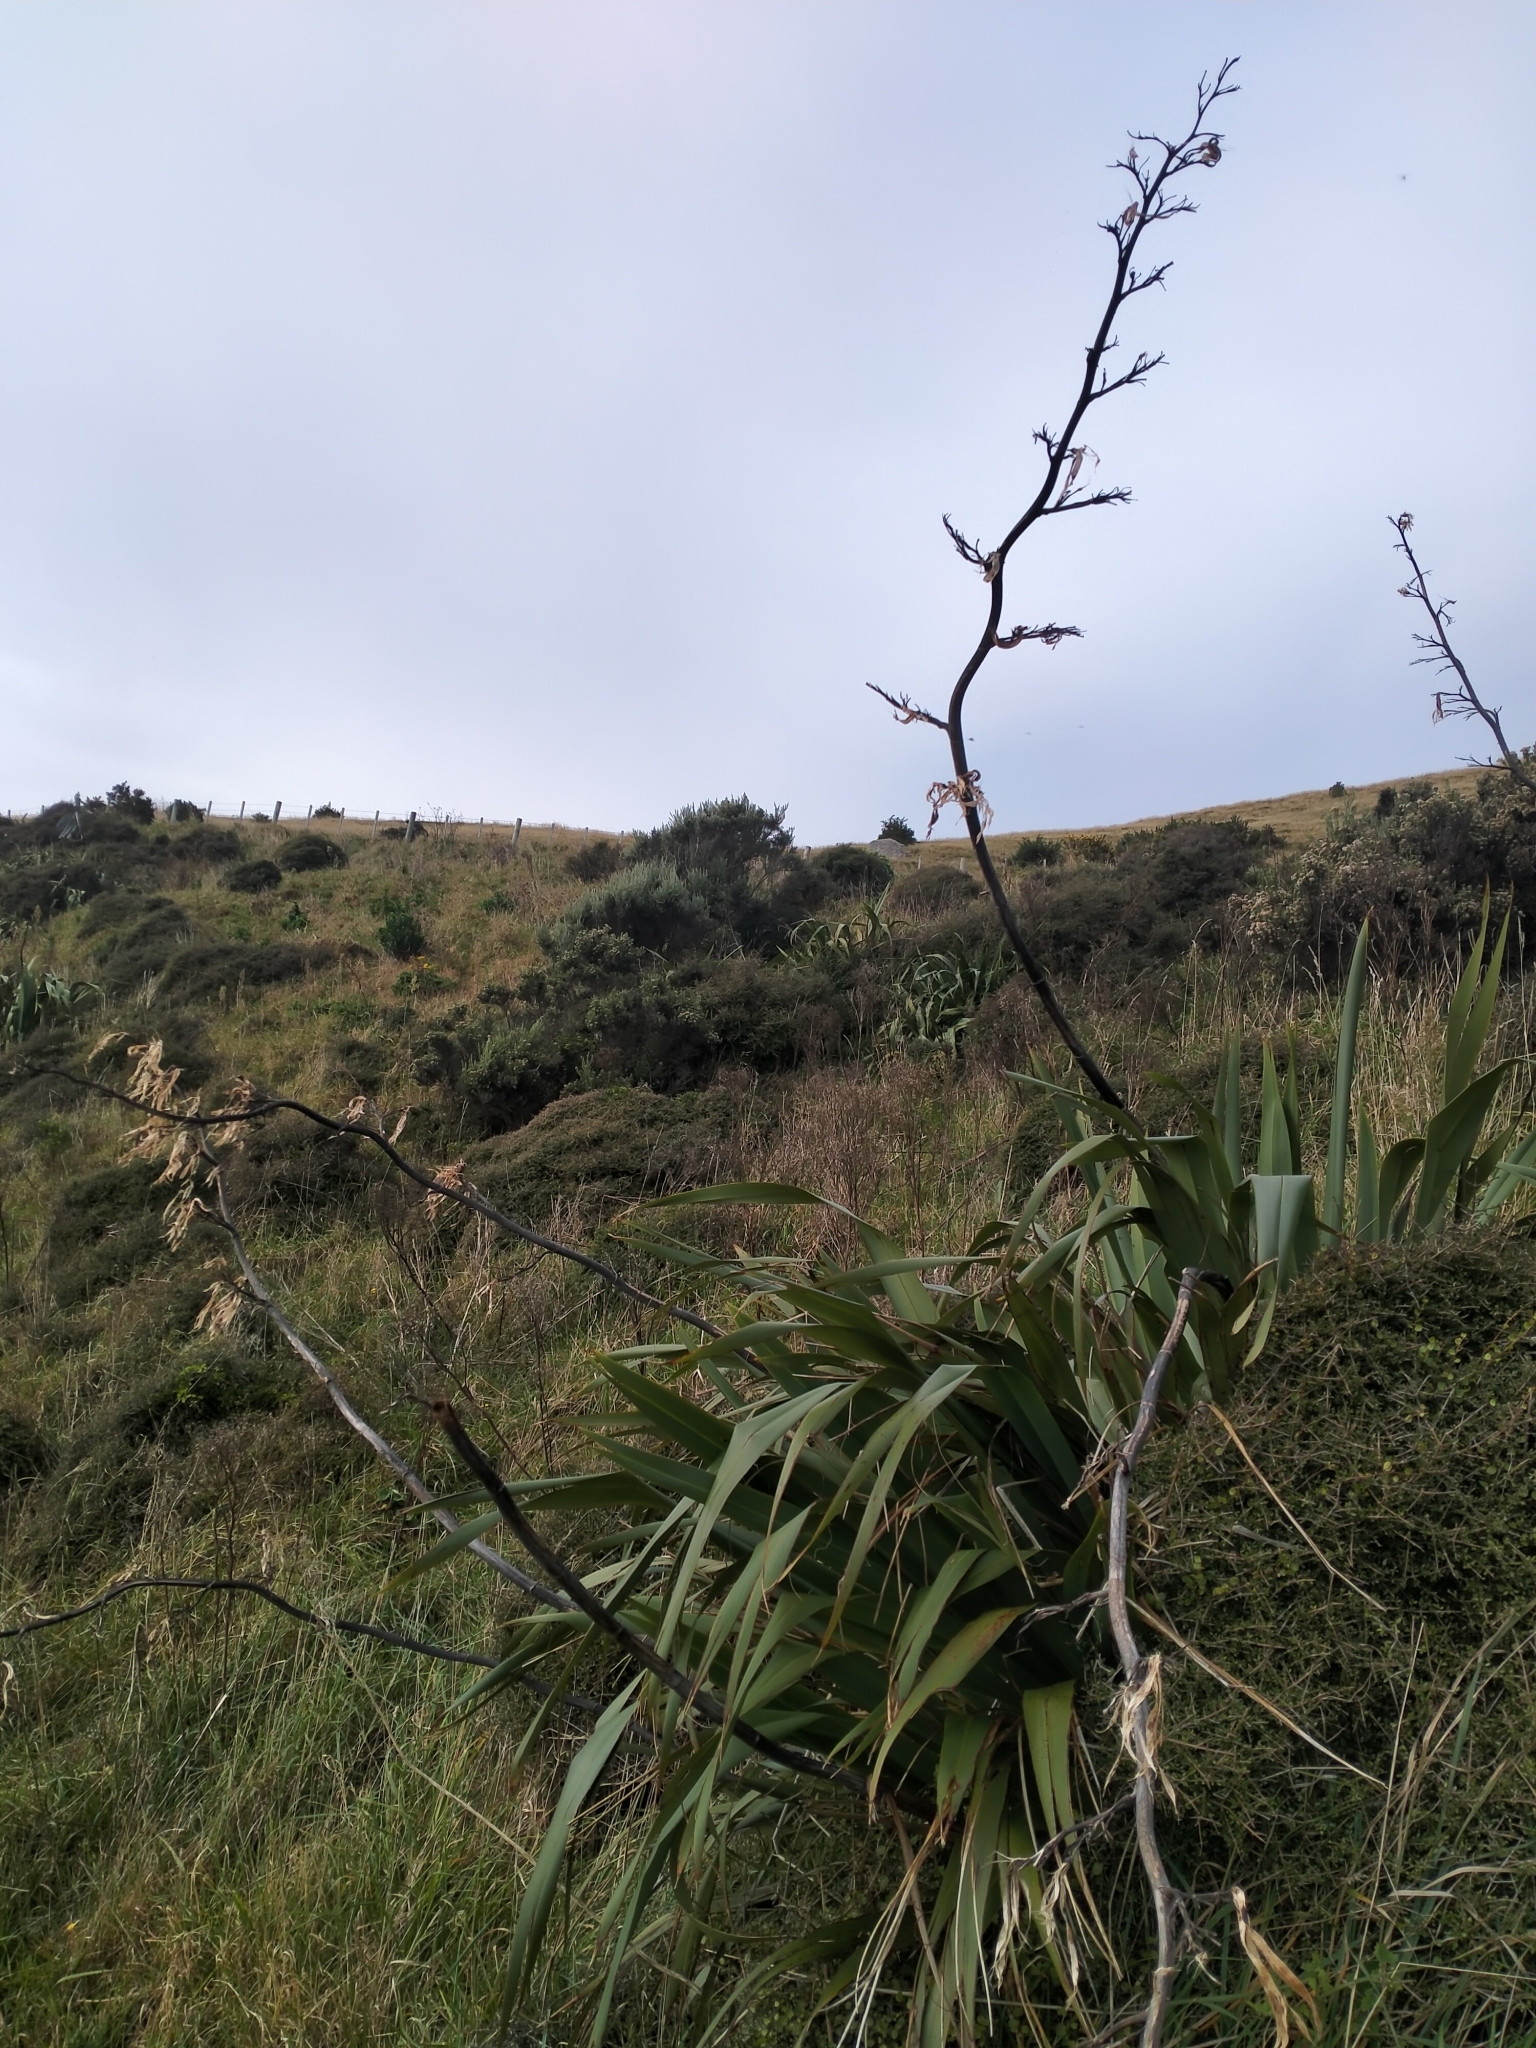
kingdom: Plantae
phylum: Tracheophyta
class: Liliopsida
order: Asparagales
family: Asphodelaceae
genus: Phormium
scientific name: Phormium tenax
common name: New zealand flax
